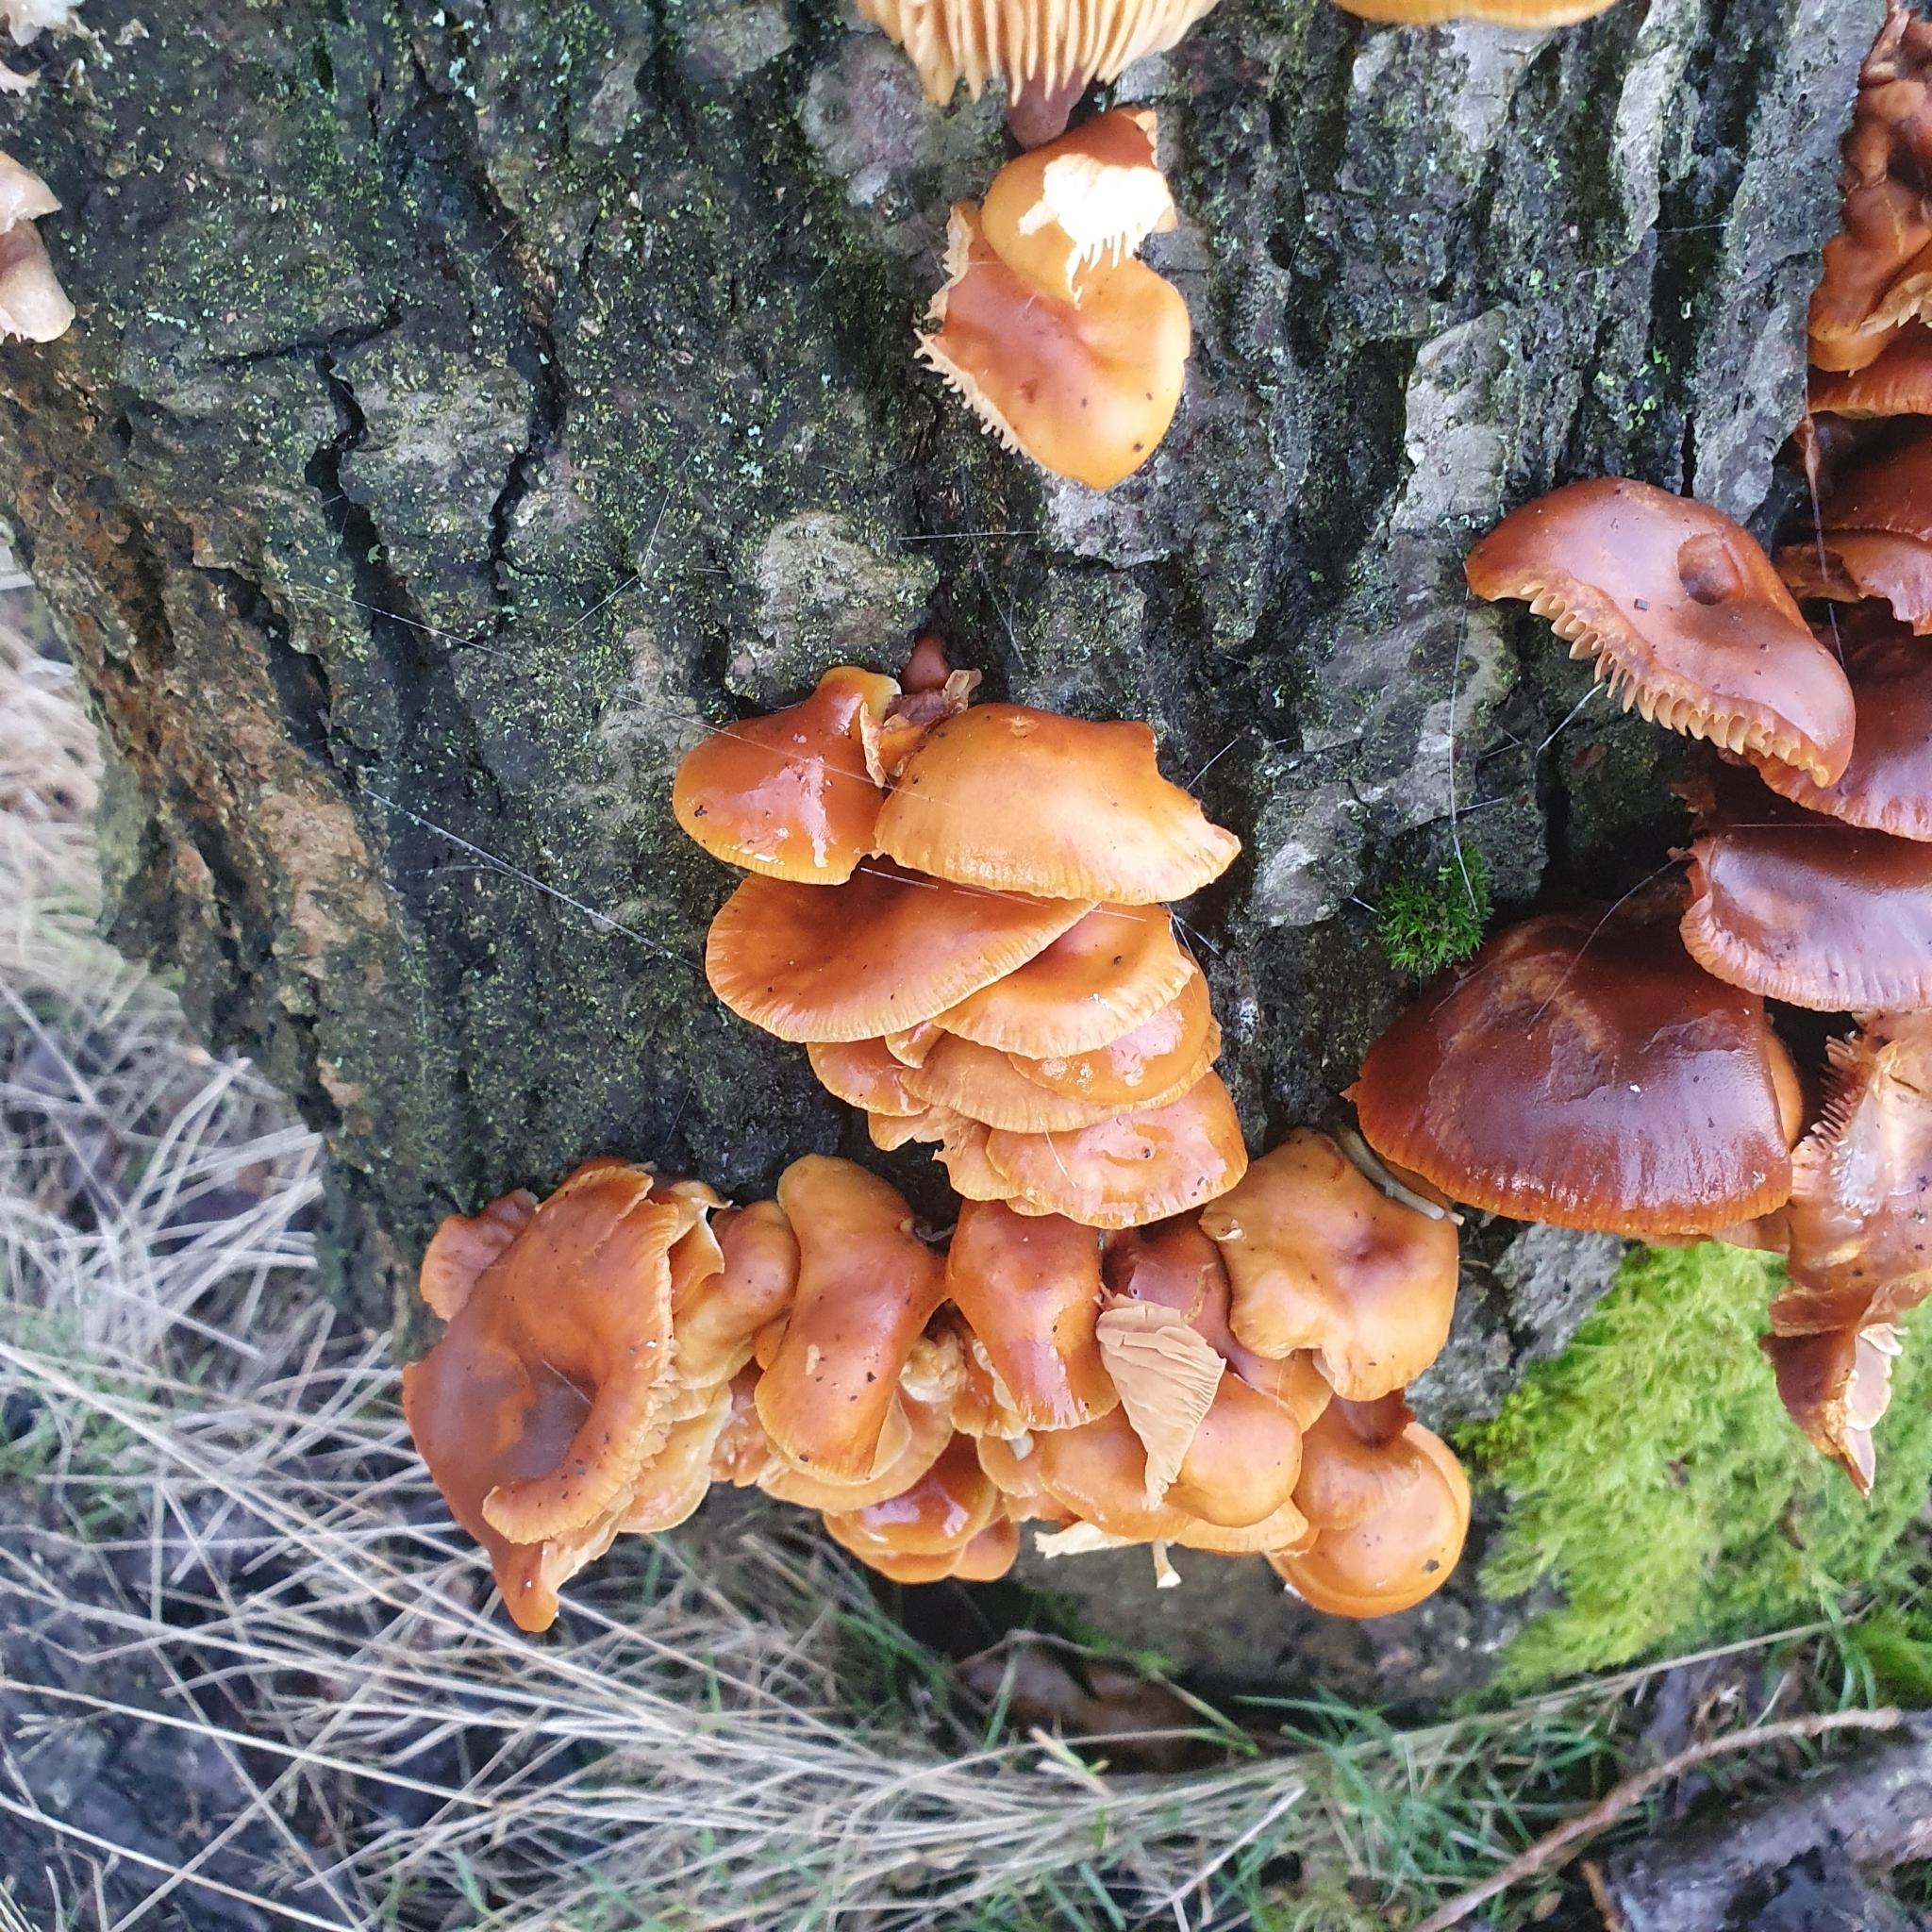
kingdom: Fungi
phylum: Basidiomycota
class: Agaricomycetes
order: Agaricales
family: Physalacriaceae
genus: Flammulina
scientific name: Flammulina
